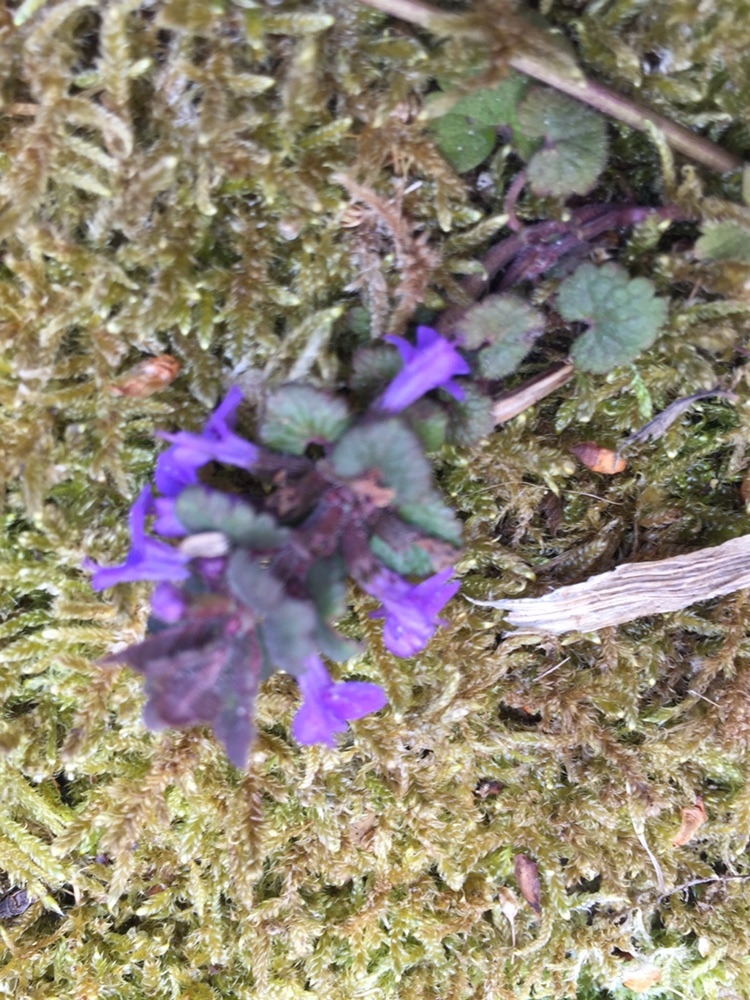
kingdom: Plantae
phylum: Tracheophyta
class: Magnoliopsida
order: Lamiales
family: Lamiaceae
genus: Glechoma
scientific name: Glechoma hederacea
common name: Ground ivy
